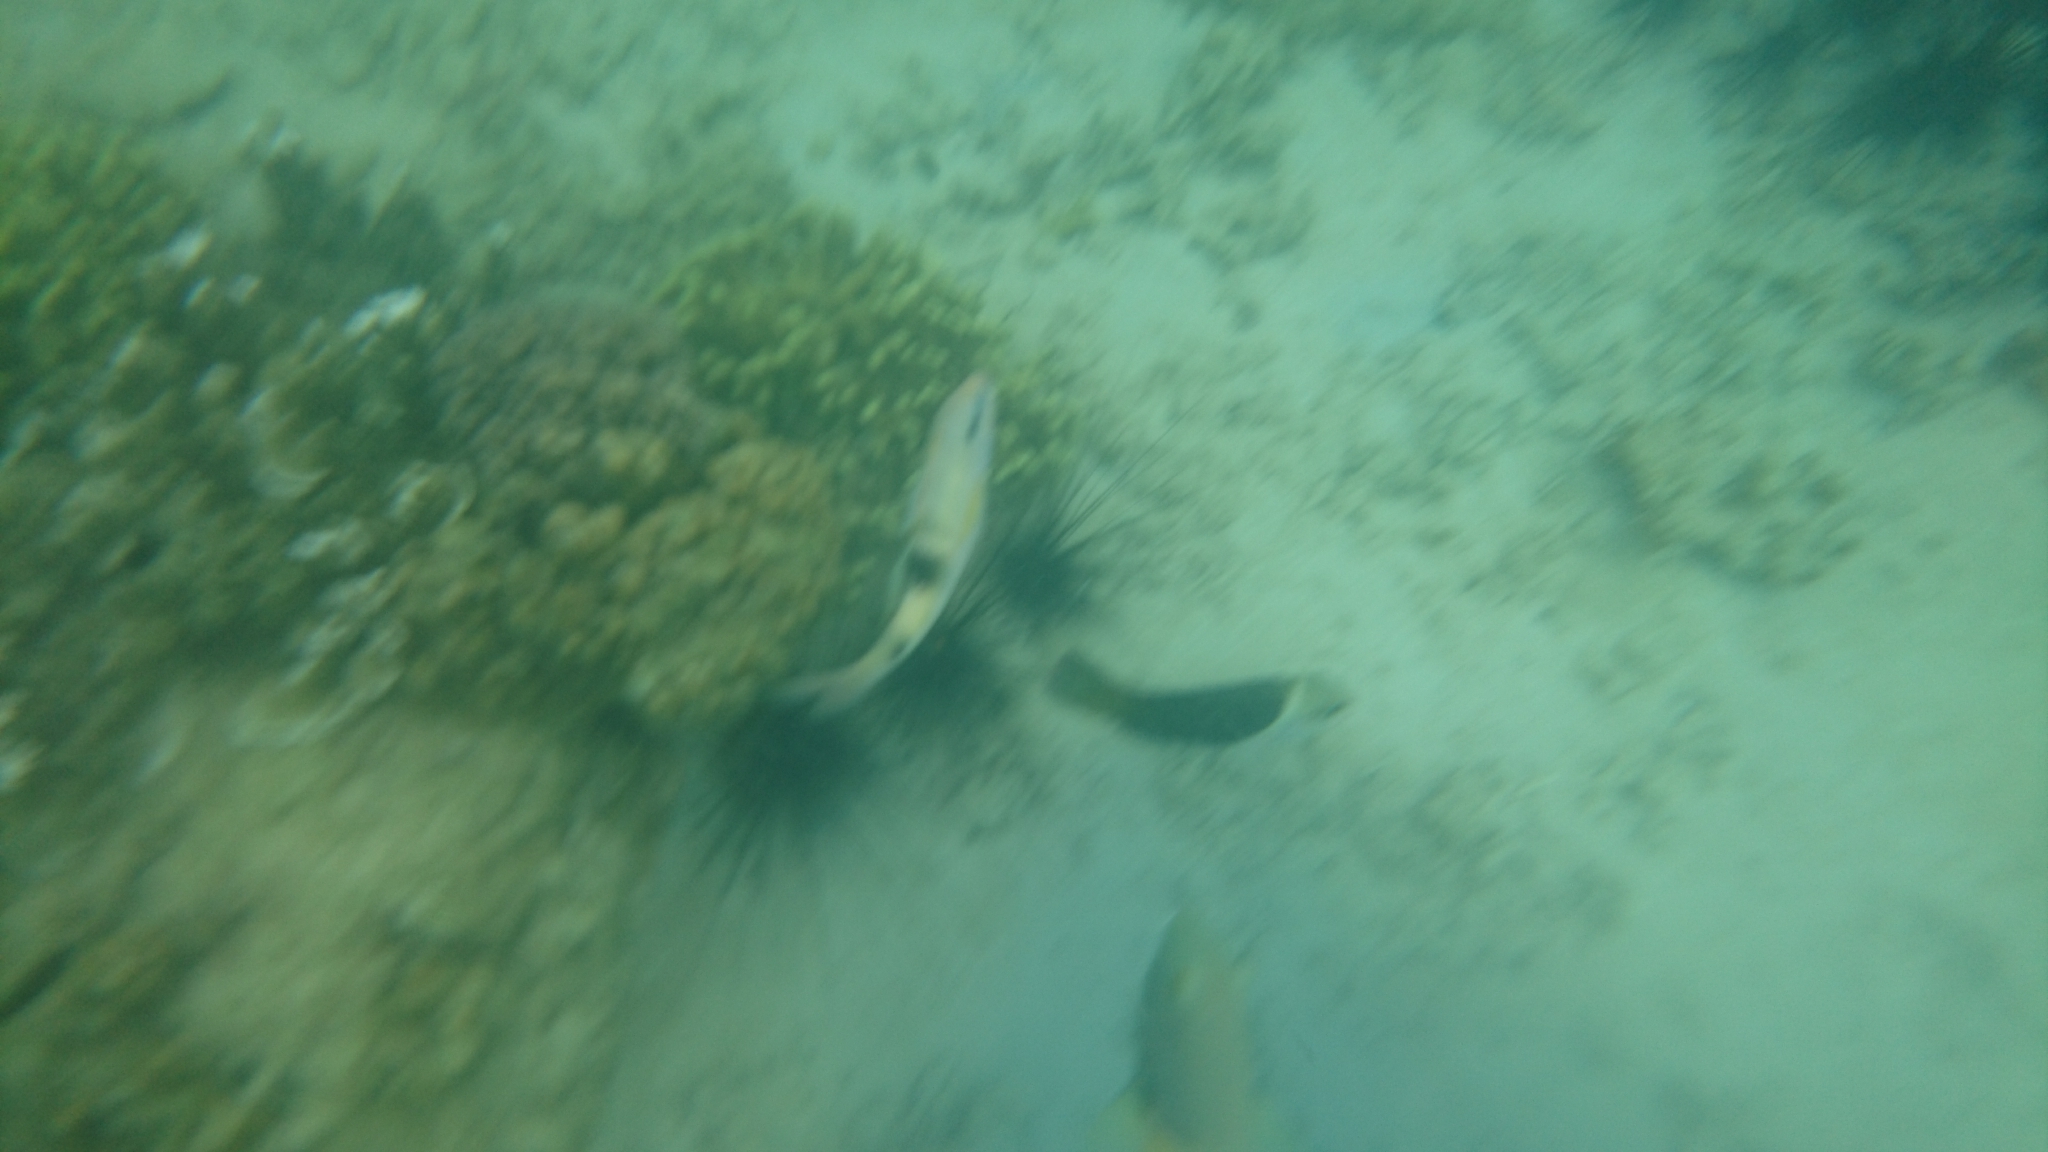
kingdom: Animalia
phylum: Chordata
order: Perciformes
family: Mullidae
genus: Parupeneus
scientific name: Parupeneus multifasciatus
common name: Manybar goatfish
